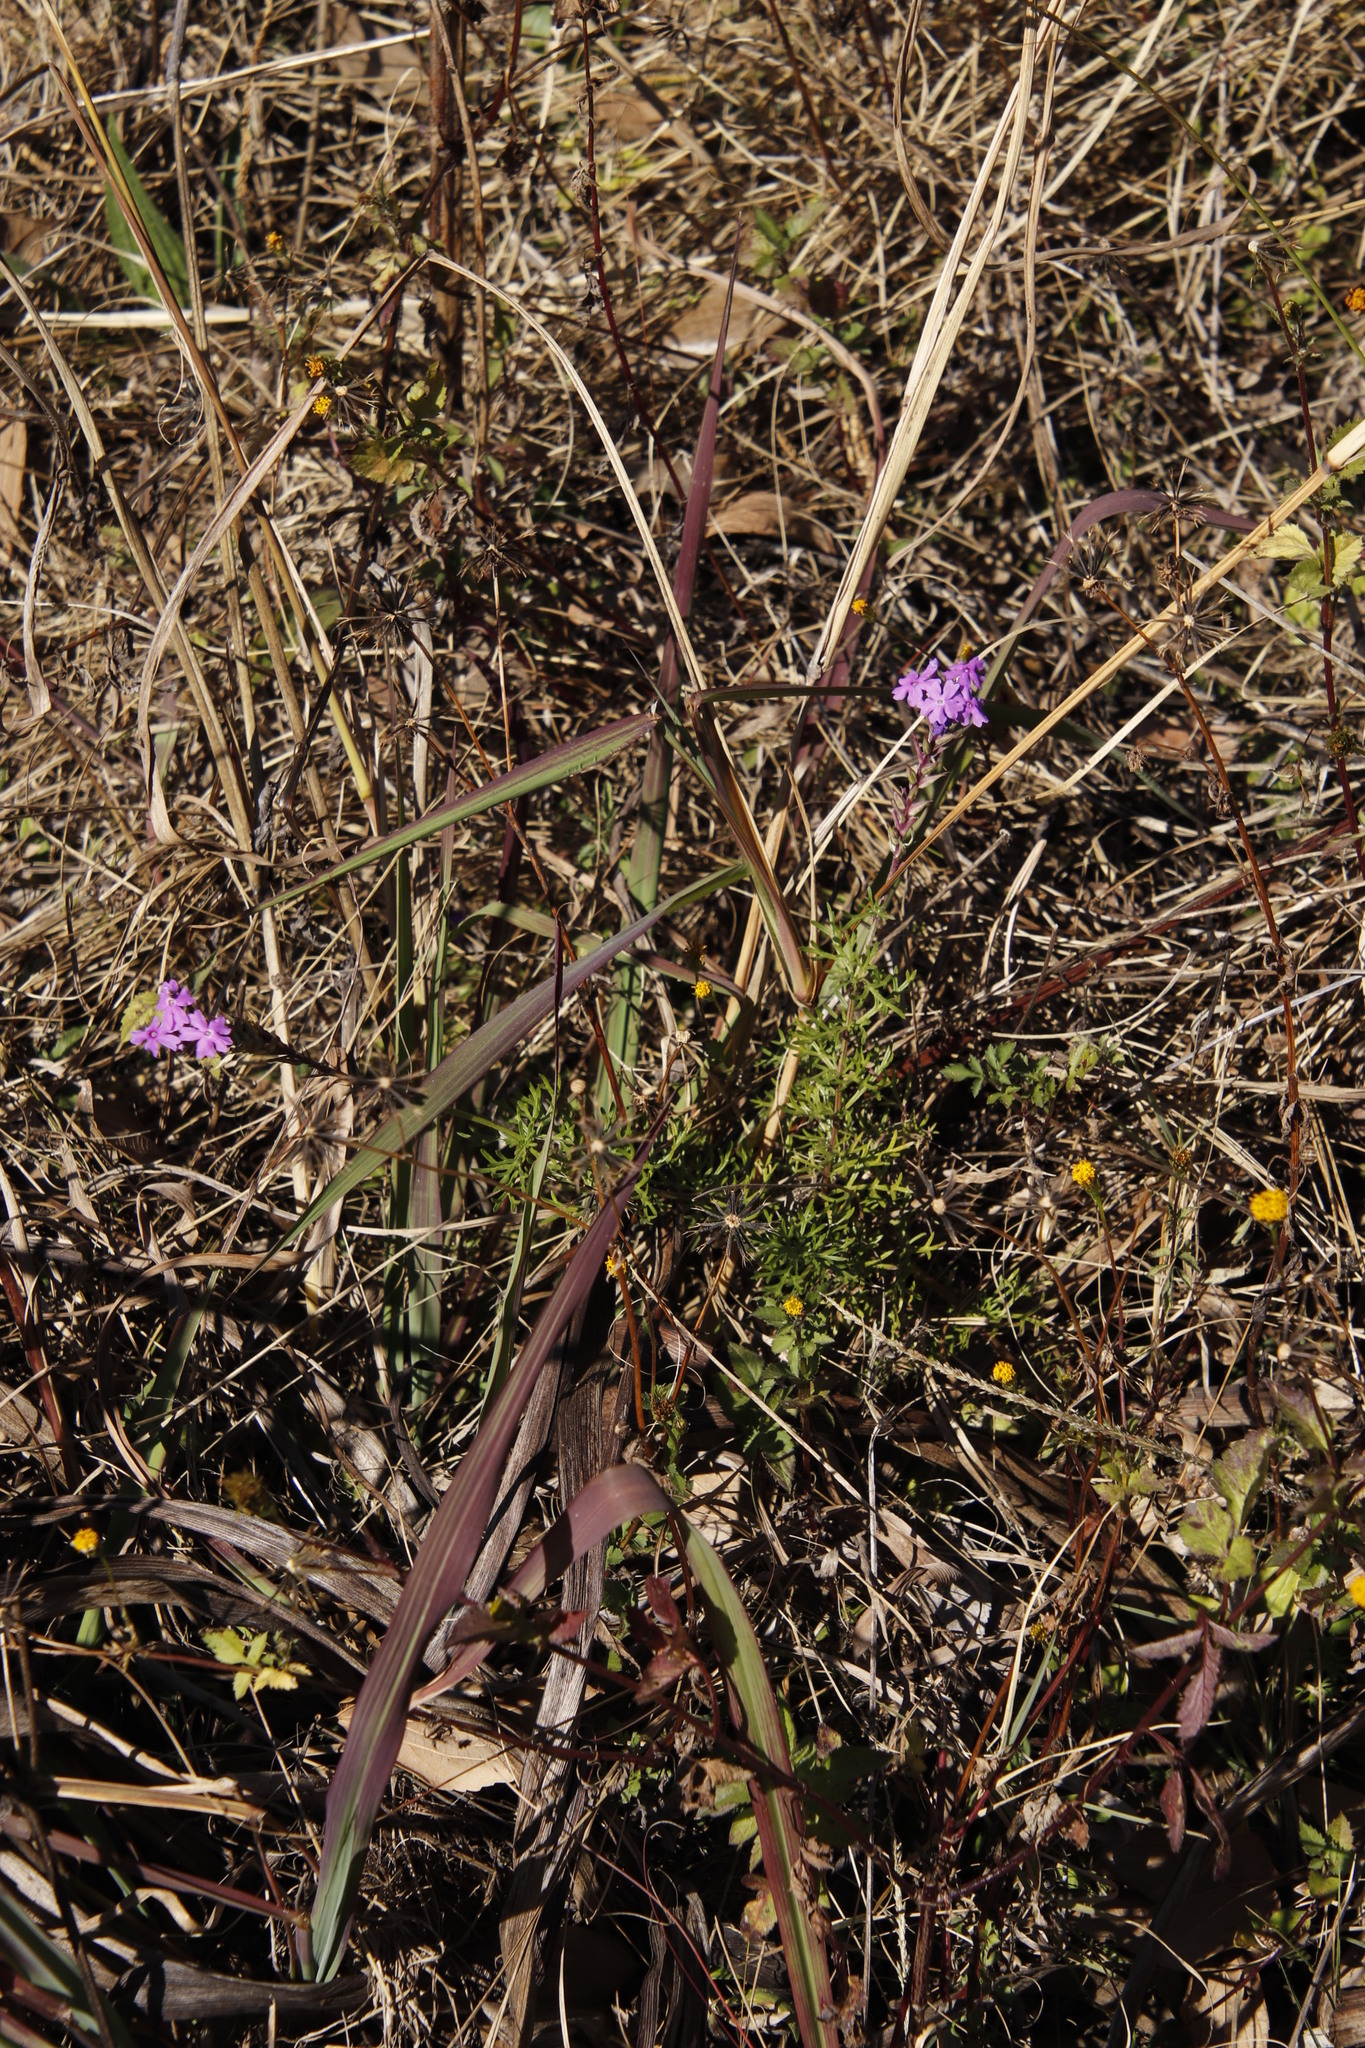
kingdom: Plantae
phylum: Tracheophyta
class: Magnoliopsida
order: Lamiales
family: Verbenaceae
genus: Verbena
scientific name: Verbena aristigera
